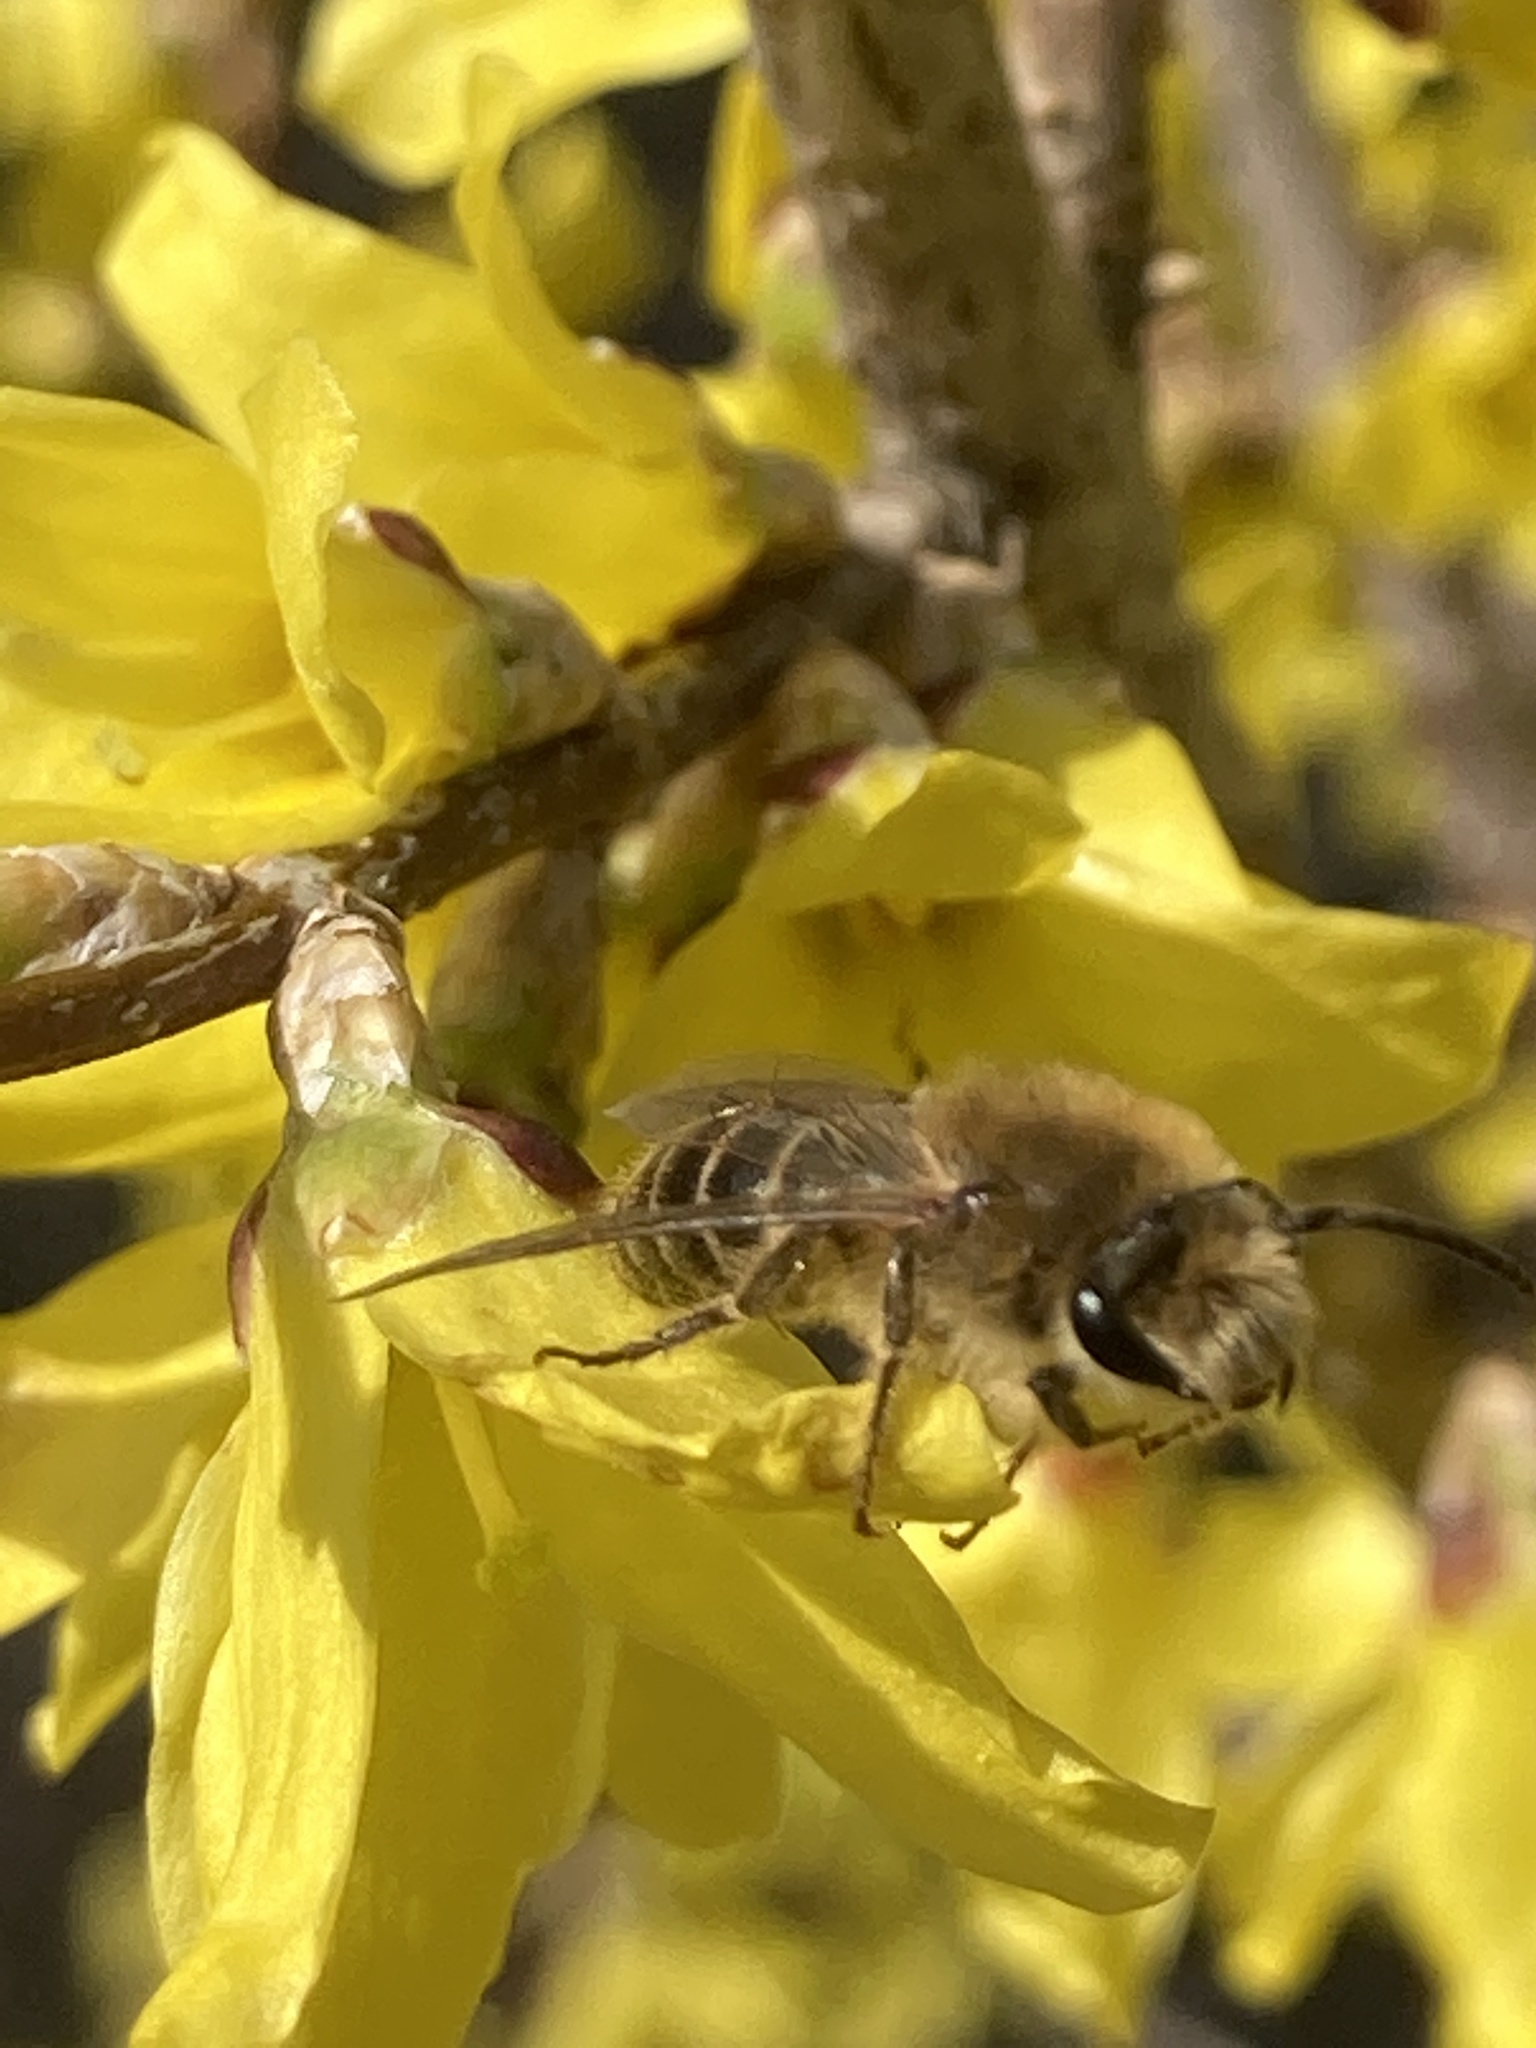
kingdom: Animalia
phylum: Arthropoda
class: Insecta
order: Hymenoptera
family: Colletidae
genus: Colletes
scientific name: Colletes inaequalis
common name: Unequal cellophane bee
